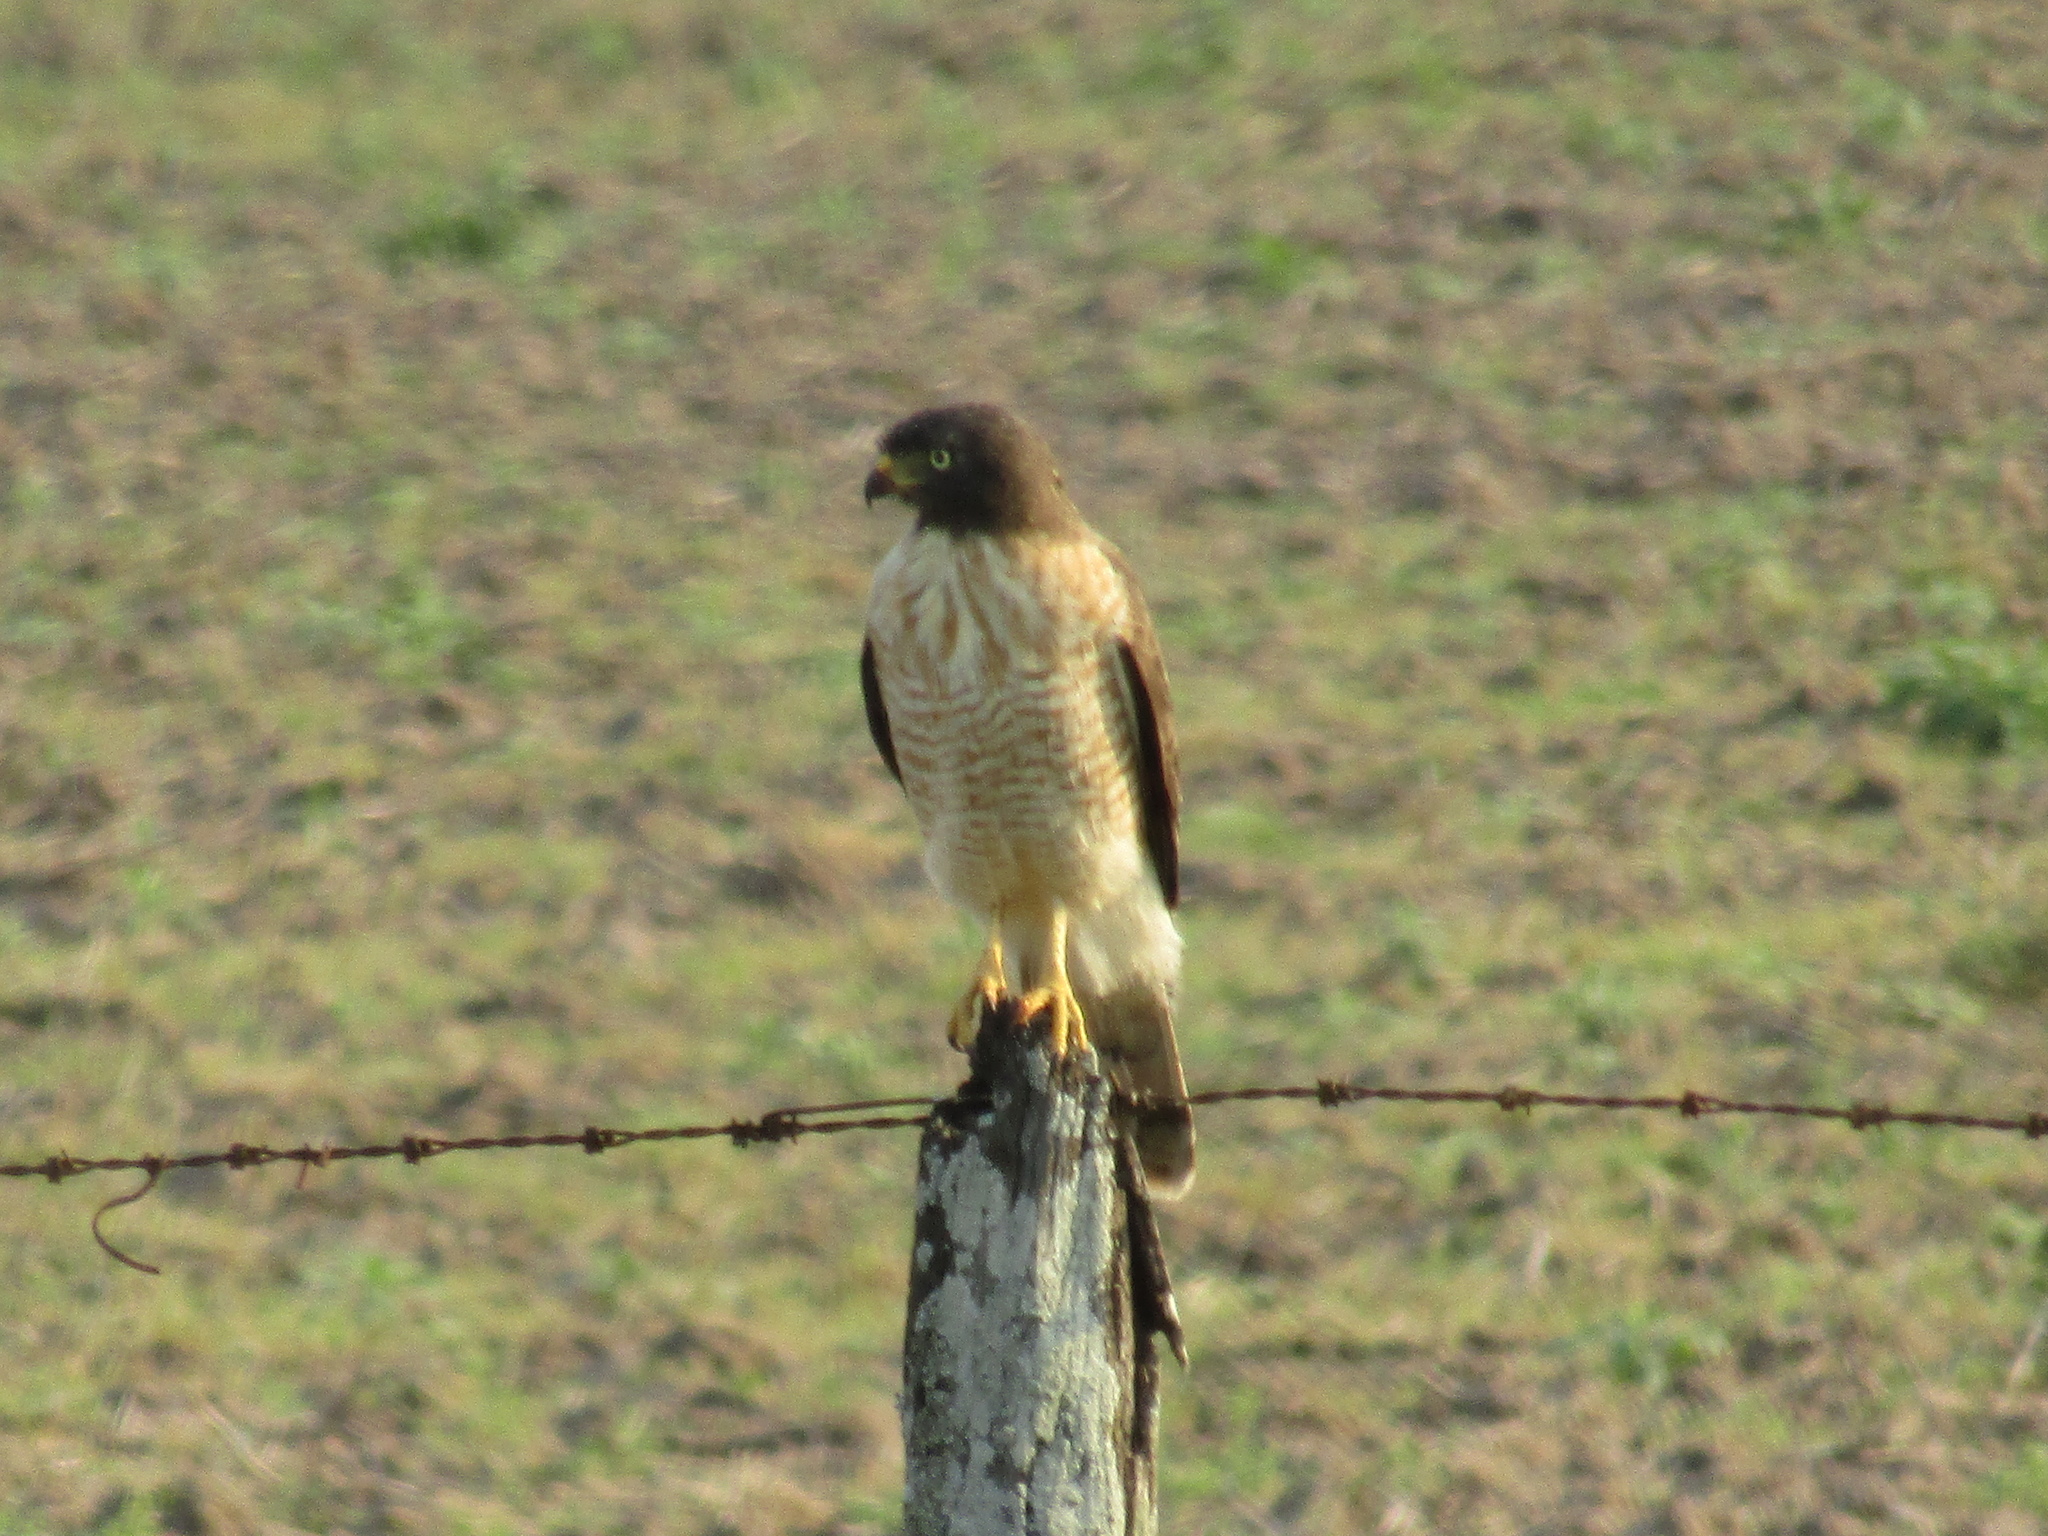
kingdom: Animalia
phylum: Chordata
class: Aves
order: Accipitriformes
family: Accipitridae
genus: Rupornis
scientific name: Rupornis magnirostris
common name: Roadside hawk
